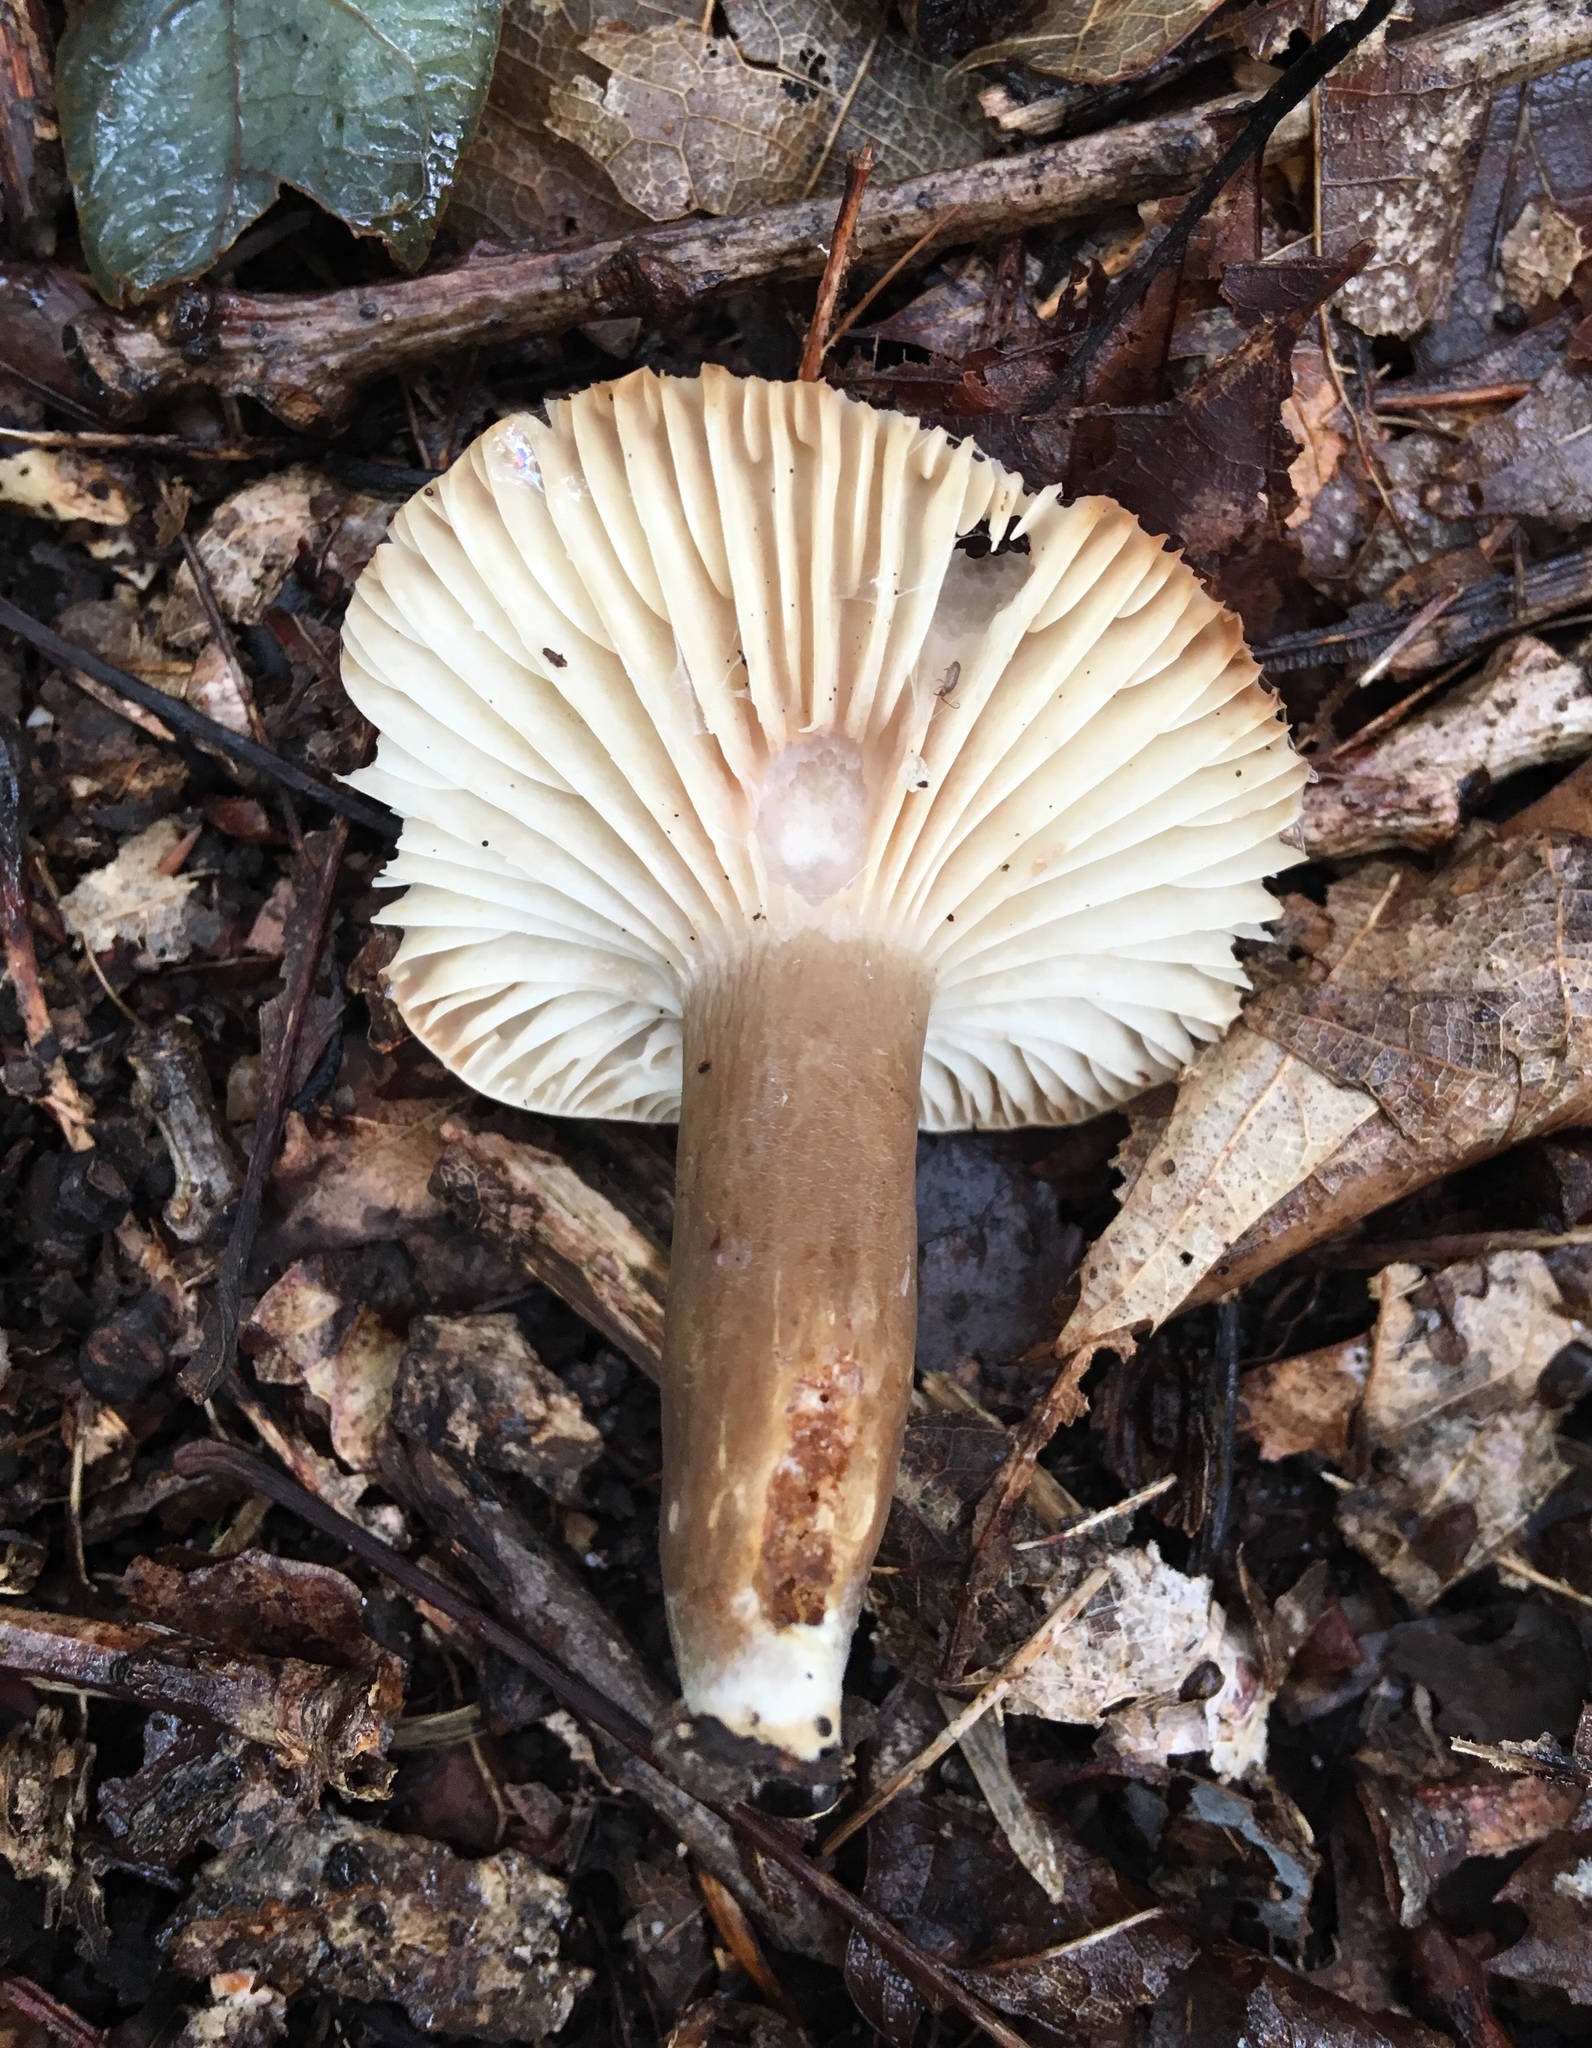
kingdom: Fungi
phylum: Basidiomycota
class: Agaricomycetes
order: Russulales
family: Russulaceae
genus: Lactarius
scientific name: Lactarius gerardii
